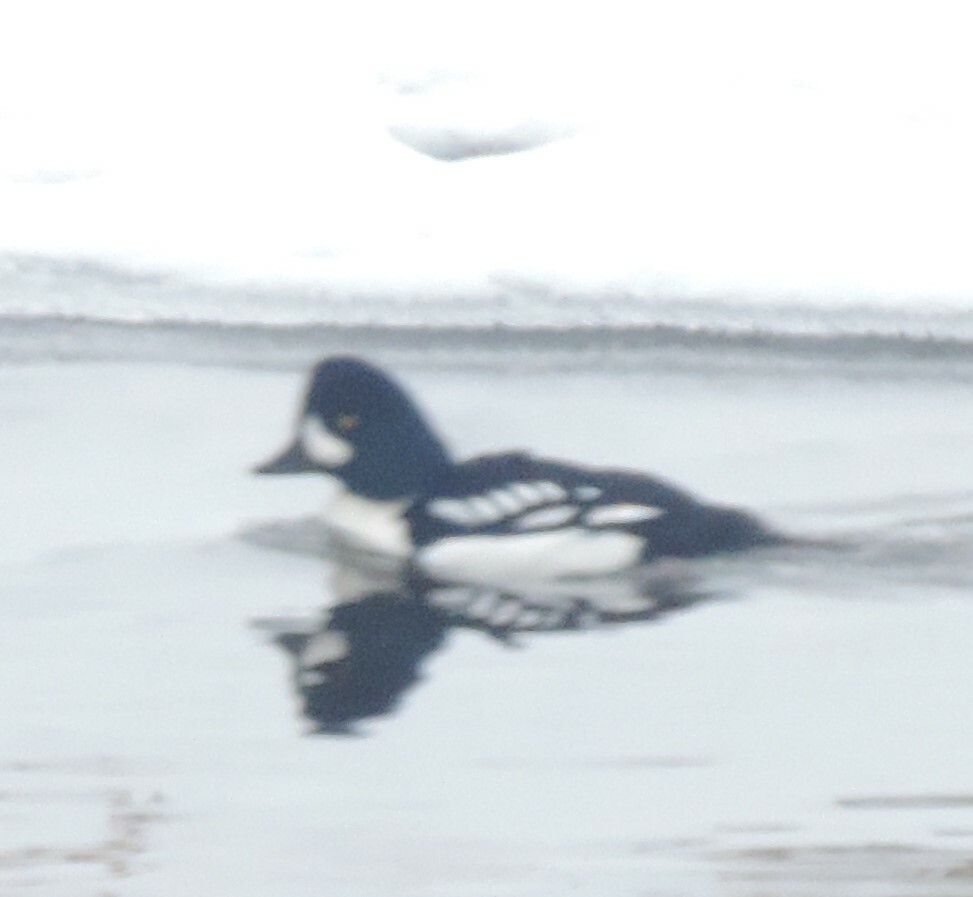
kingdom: Animalia
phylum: Chordata
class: Aves
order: Anseriformes
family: Anatidae
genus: Bucephala
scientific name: Bucephala islandica
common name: Barrow's goldeneye
